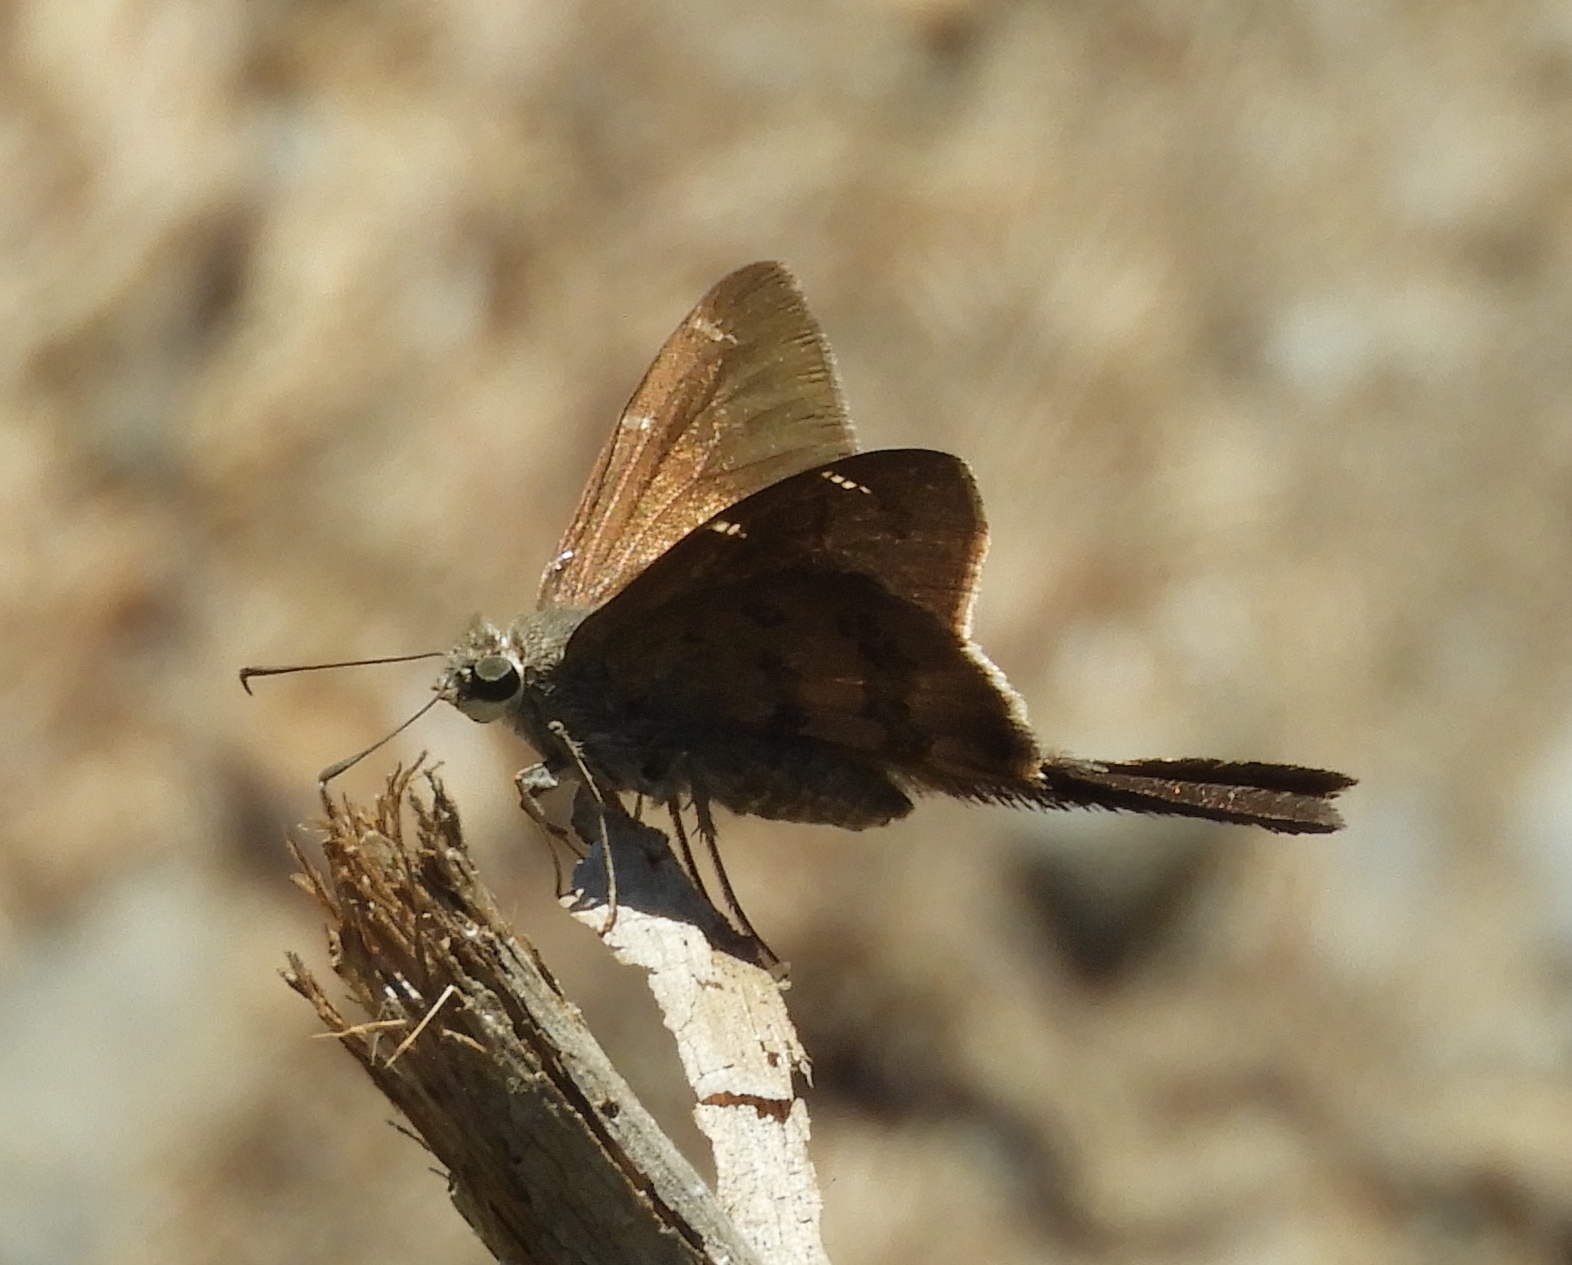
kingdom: Animalia
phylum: Arthropoda
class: Insecta
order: Lepidoptera
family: Hesperiidae
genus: Urbanus
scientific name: Urbanus procne
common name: Brown longtail
